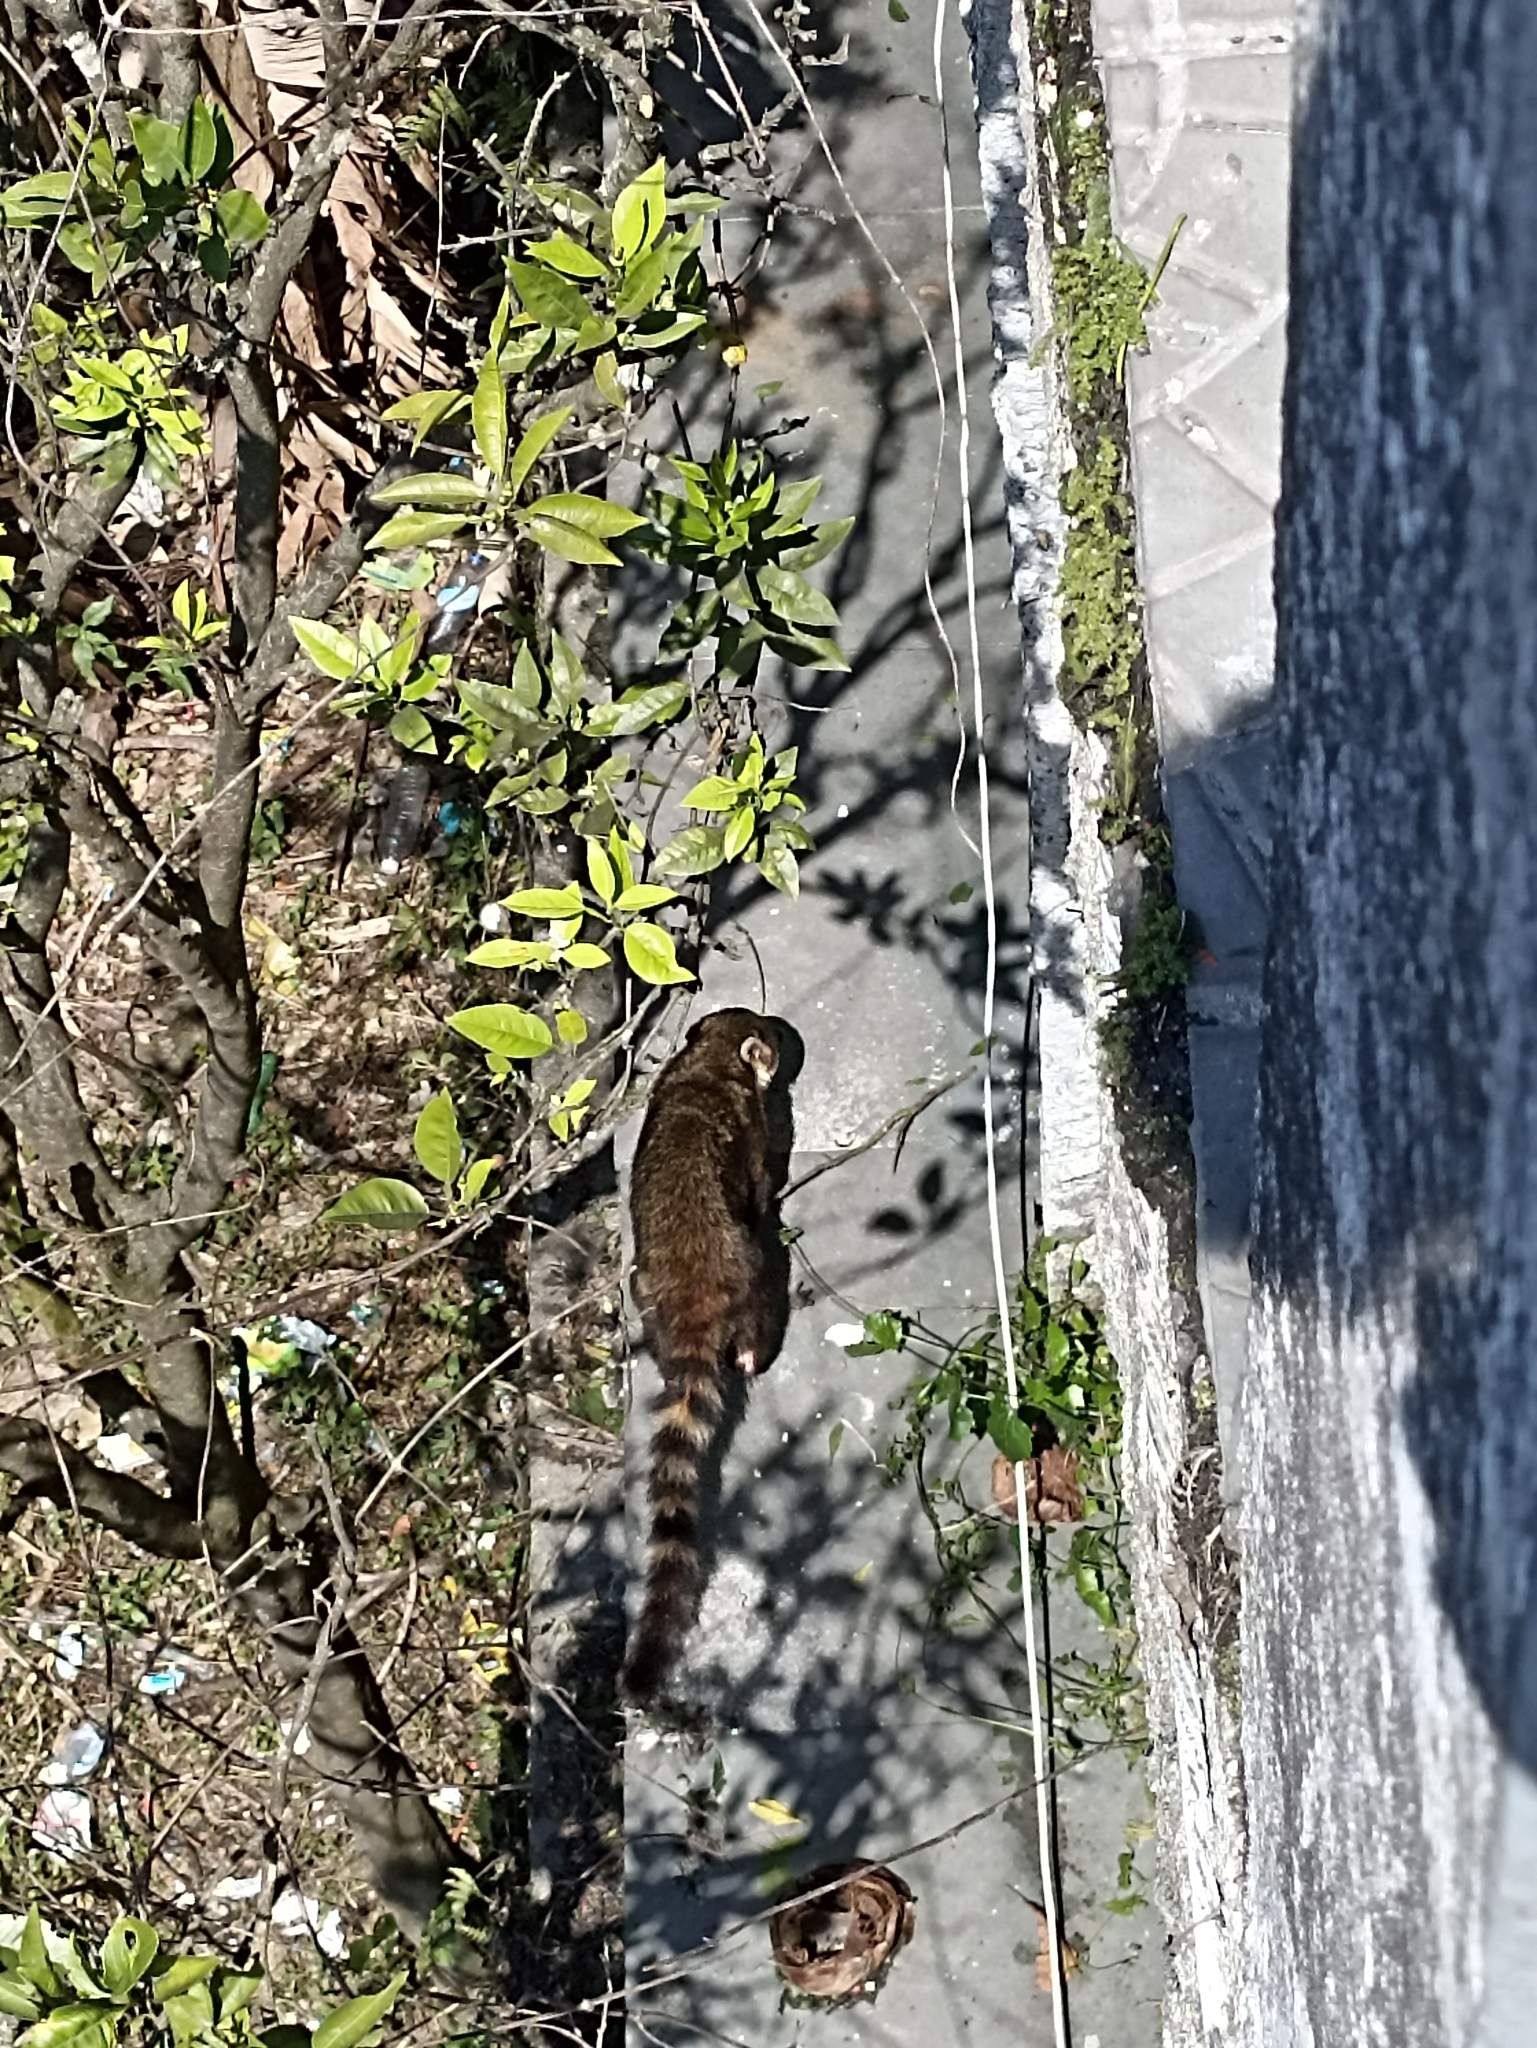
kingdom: Animalia
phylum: Chordata
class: Mammalia
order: Carnivora
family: Procyonidae
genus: Nasua
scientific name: Nasua nasua
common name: South american coati
